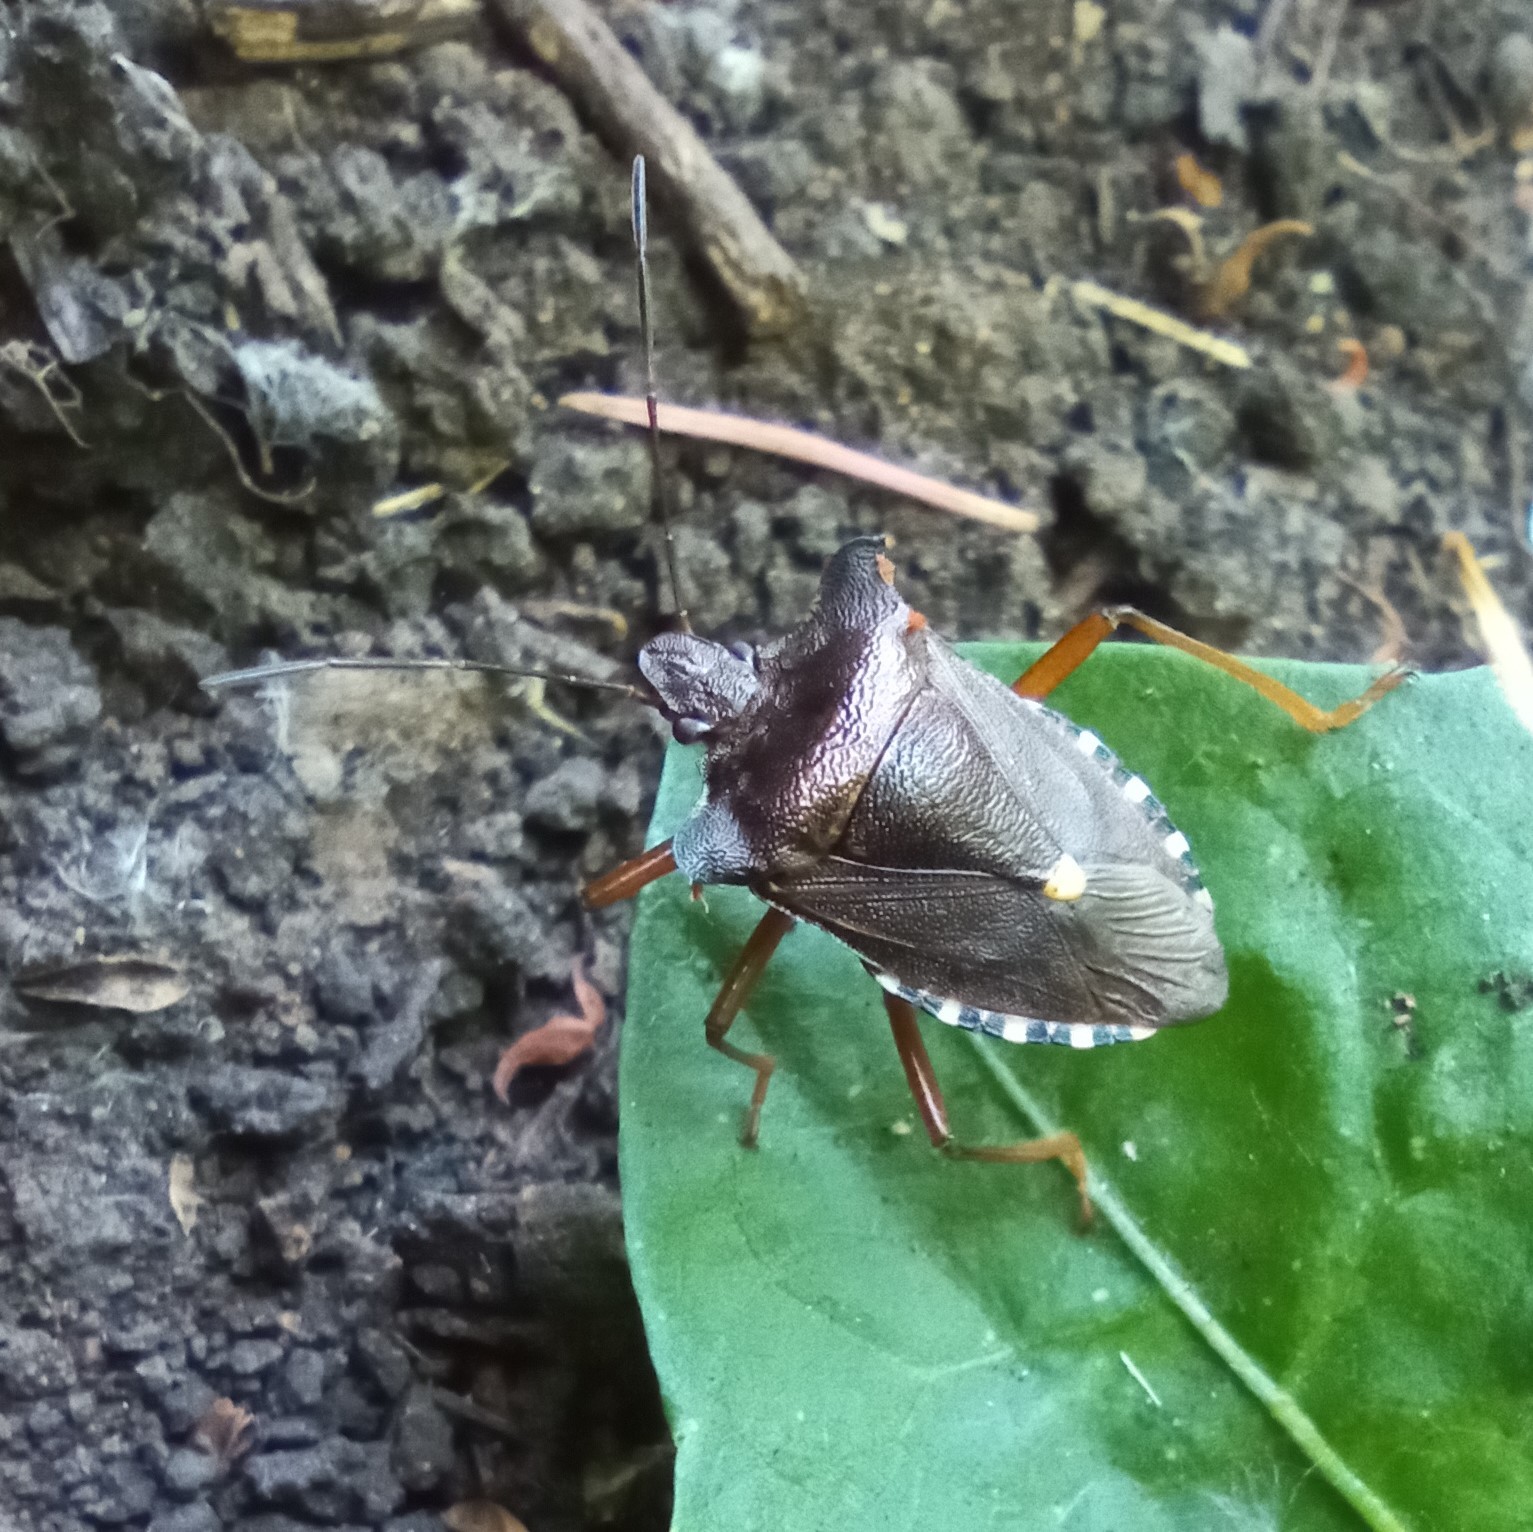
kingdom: Animalia
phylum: Arthropoda
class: Insecta
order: Hemiptera
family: Pentatomidae
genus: Pentatoma
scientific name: Pentatoma rufipes
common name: Forest bug
